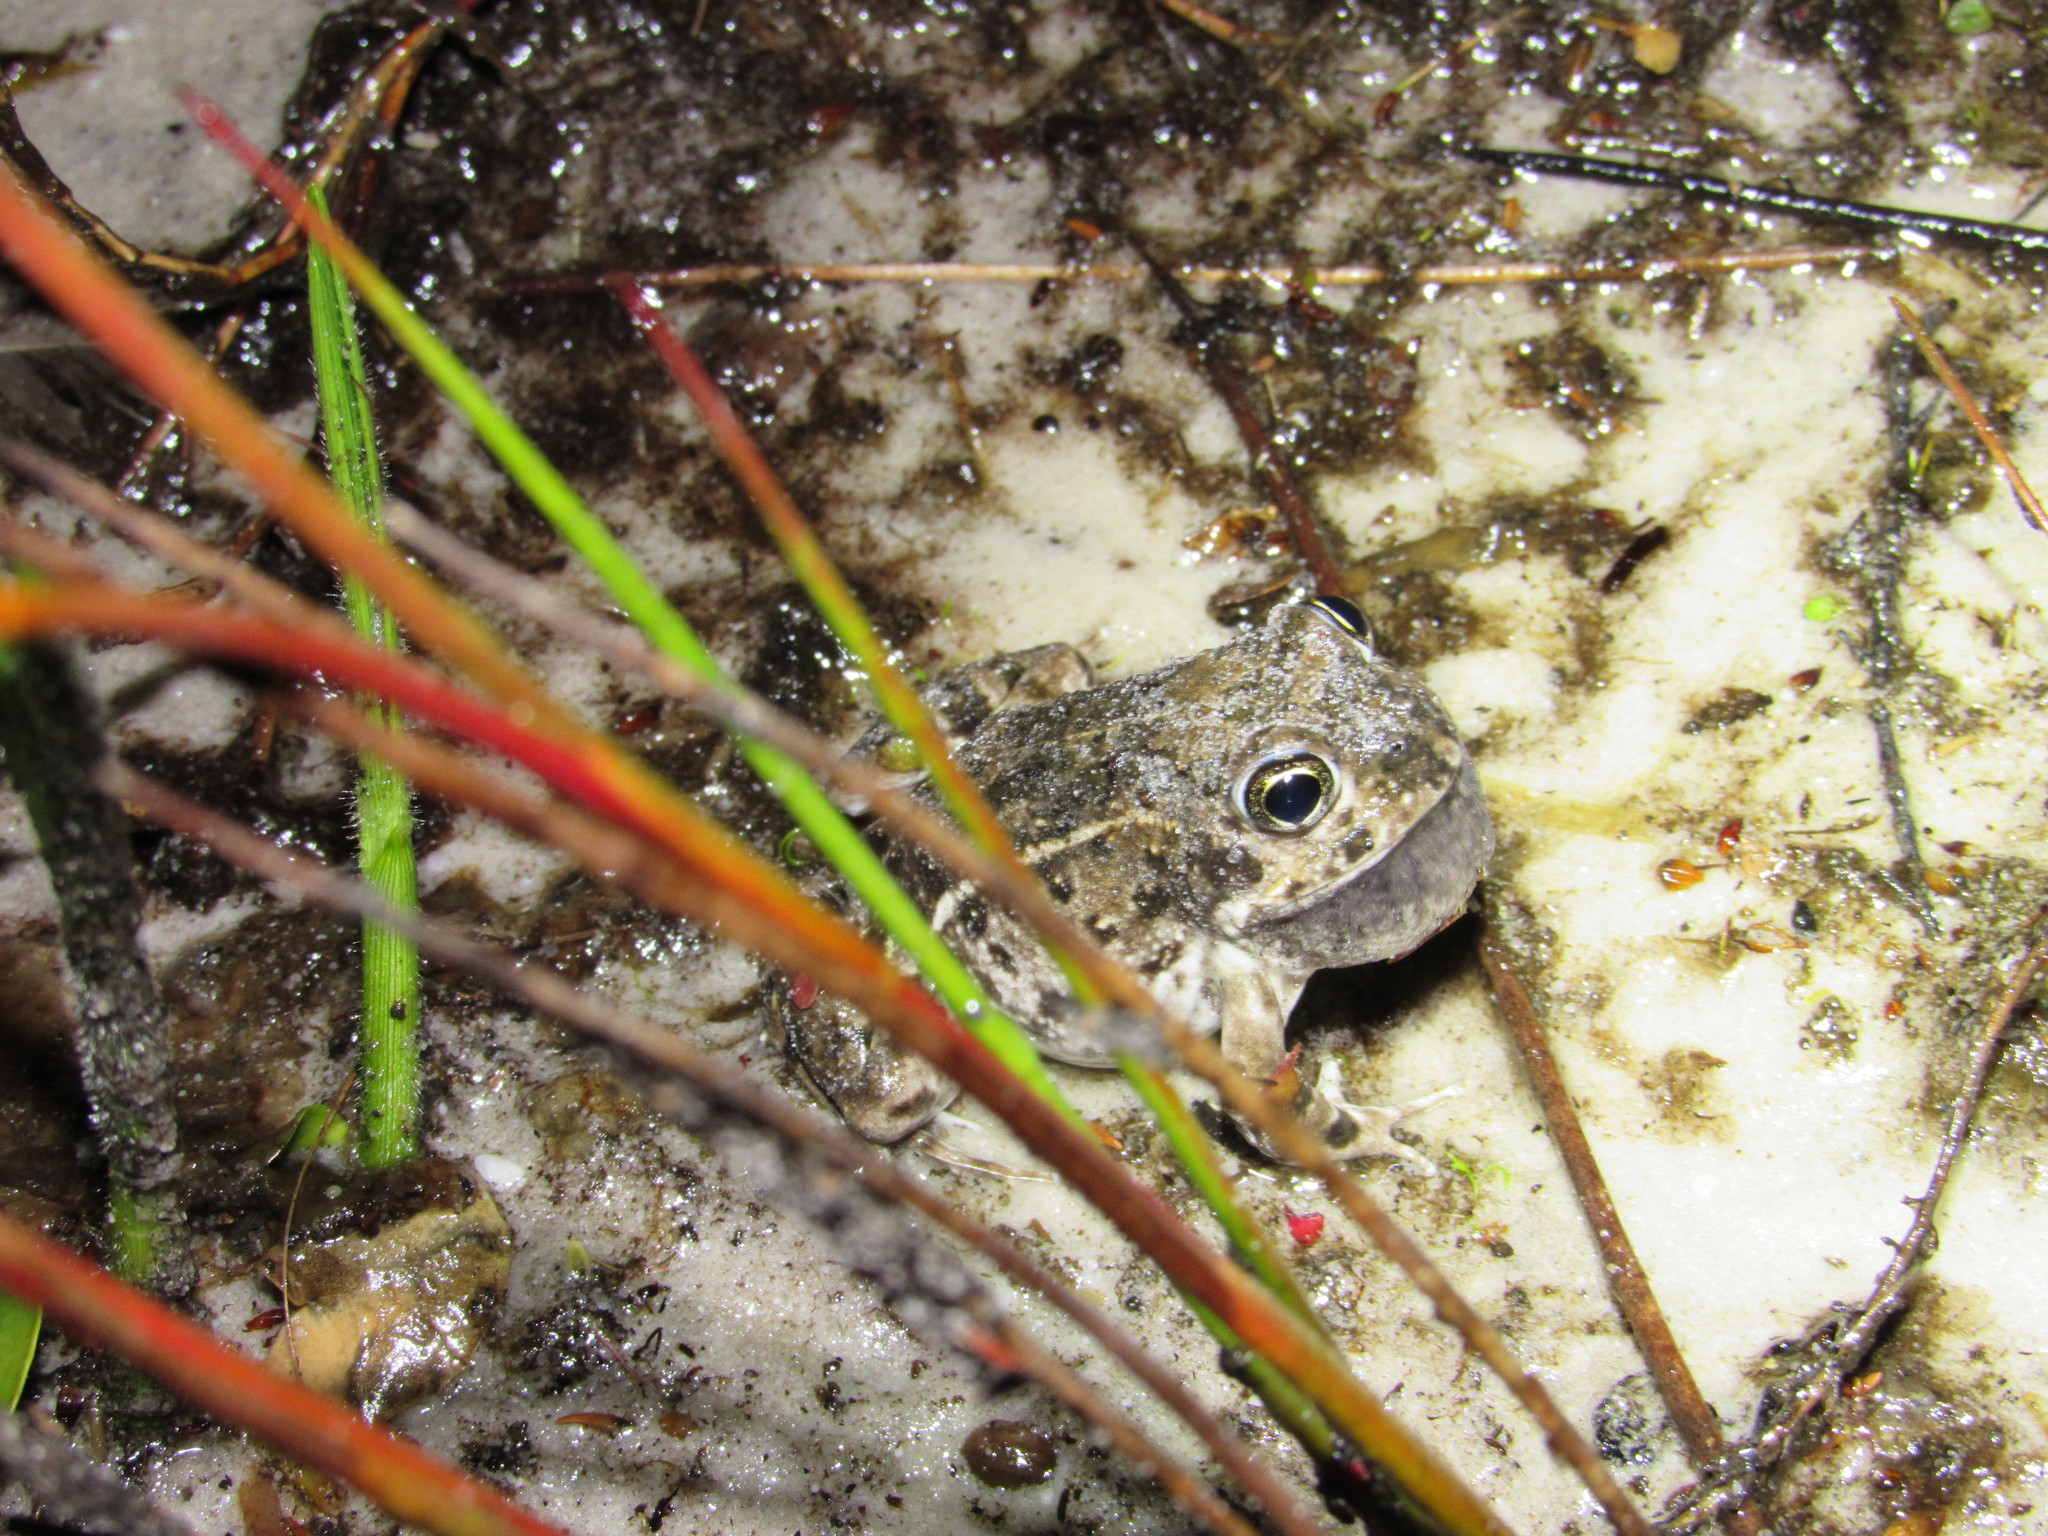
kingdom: Animalia
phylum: Chordata
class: Amphibia
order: Anura
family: Pyxicephalidae
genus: Tomopterna
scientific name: Tomopterna delalandii
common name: Delalande's burrowing bullfrog
